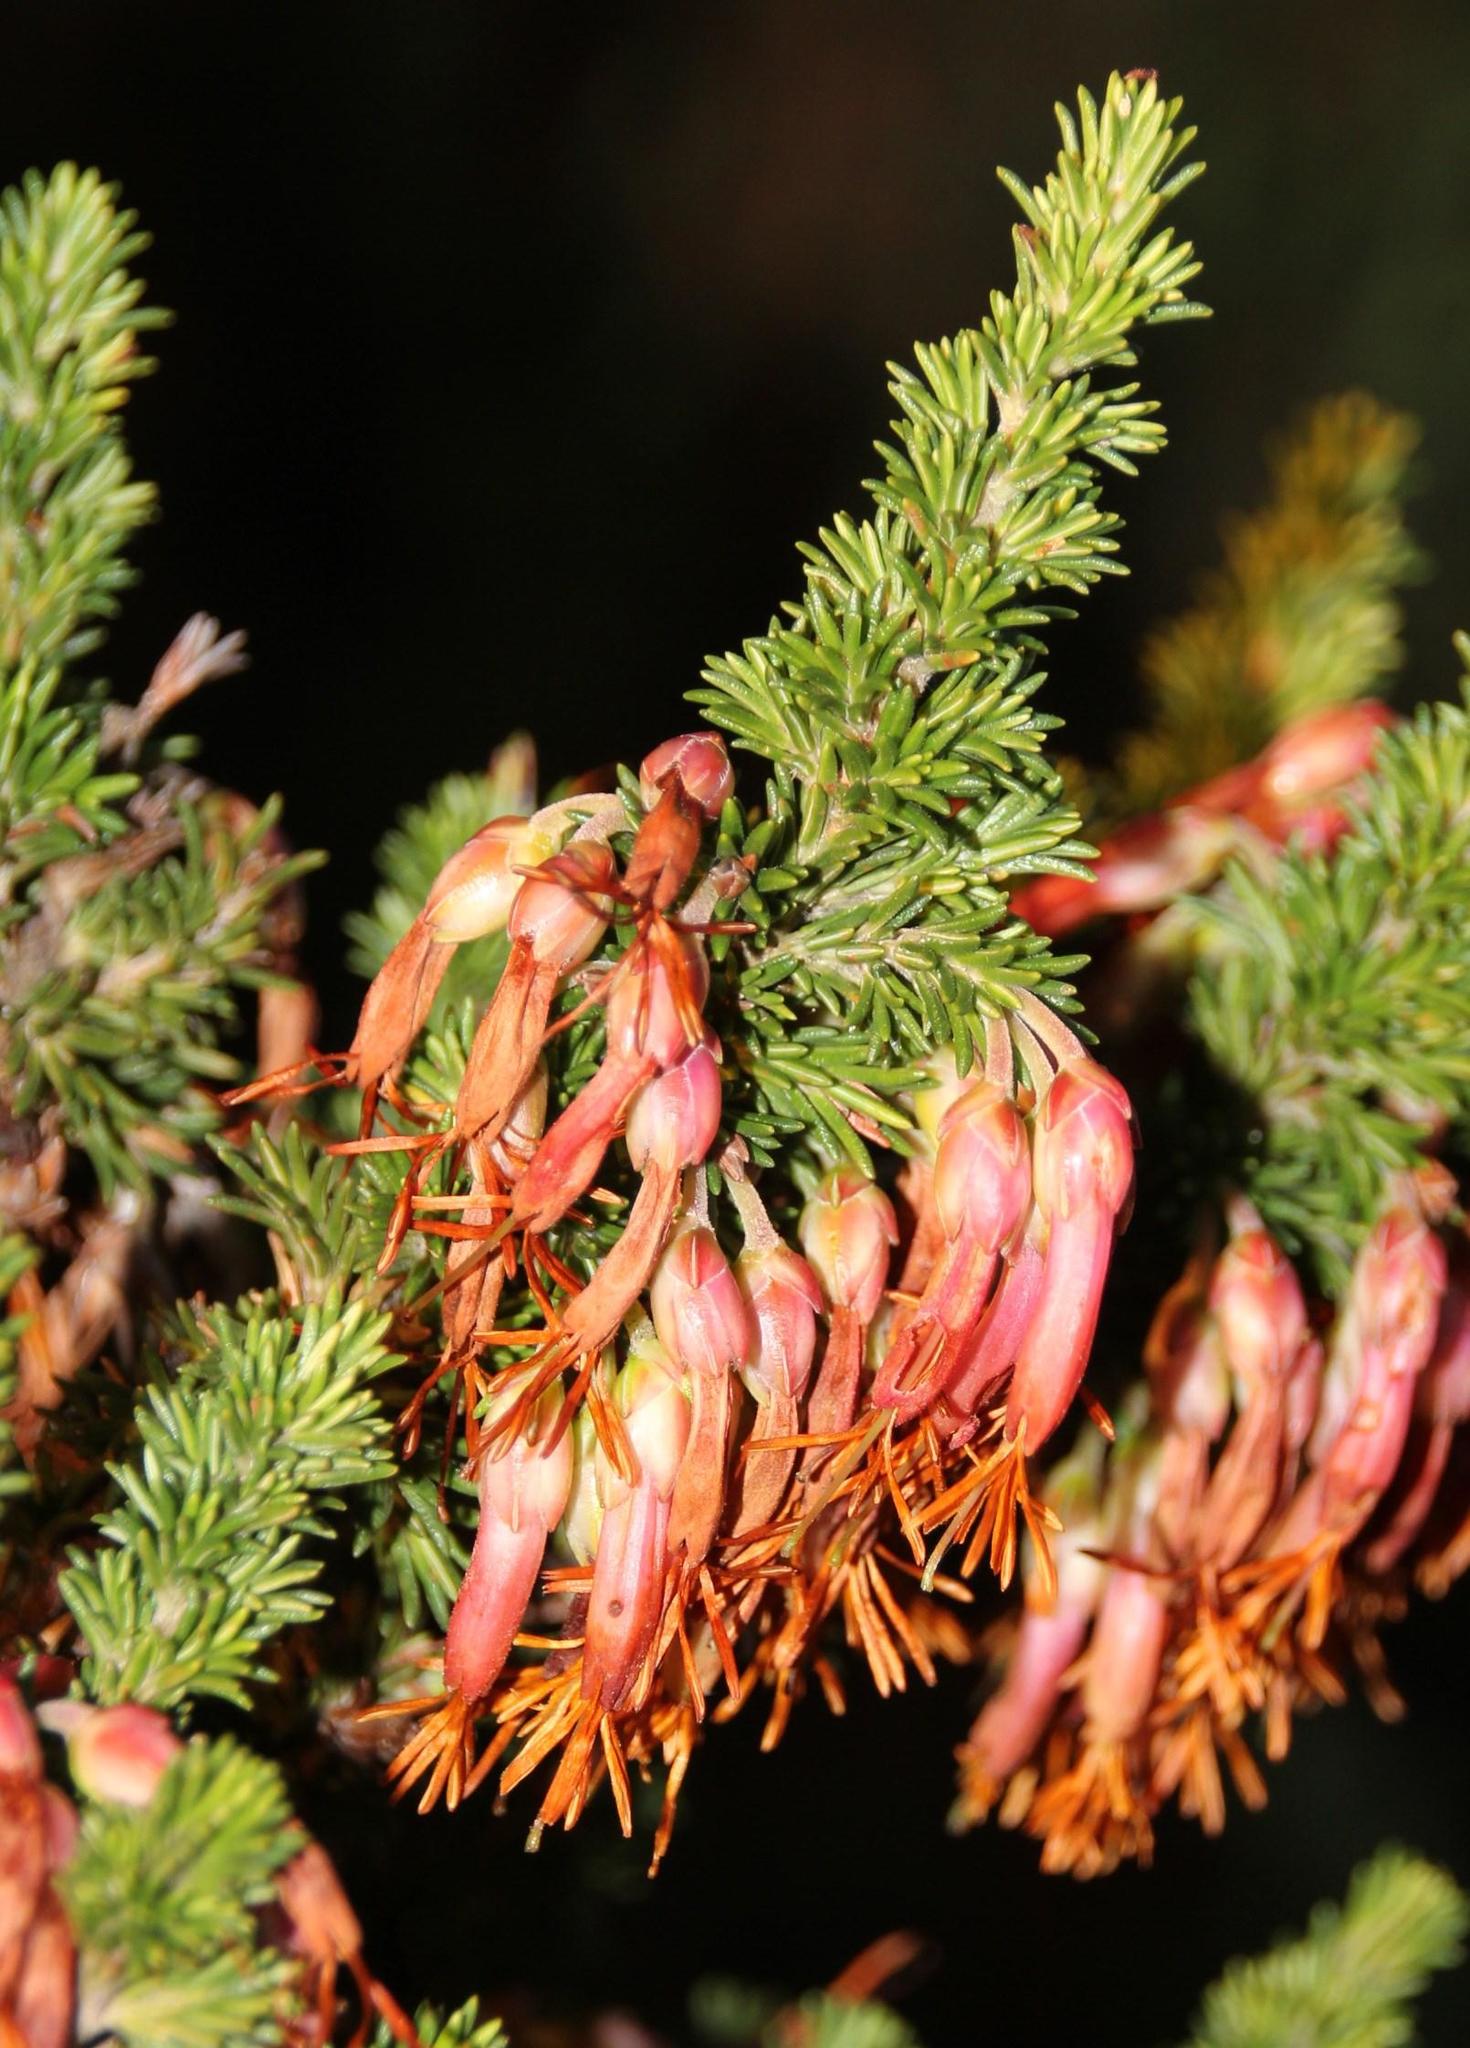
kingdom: Plantae
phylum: Tracheophyta
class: Magnoliopsida
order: Ericales
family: Ericaceae
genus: Erica
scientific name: Erica coccinea
